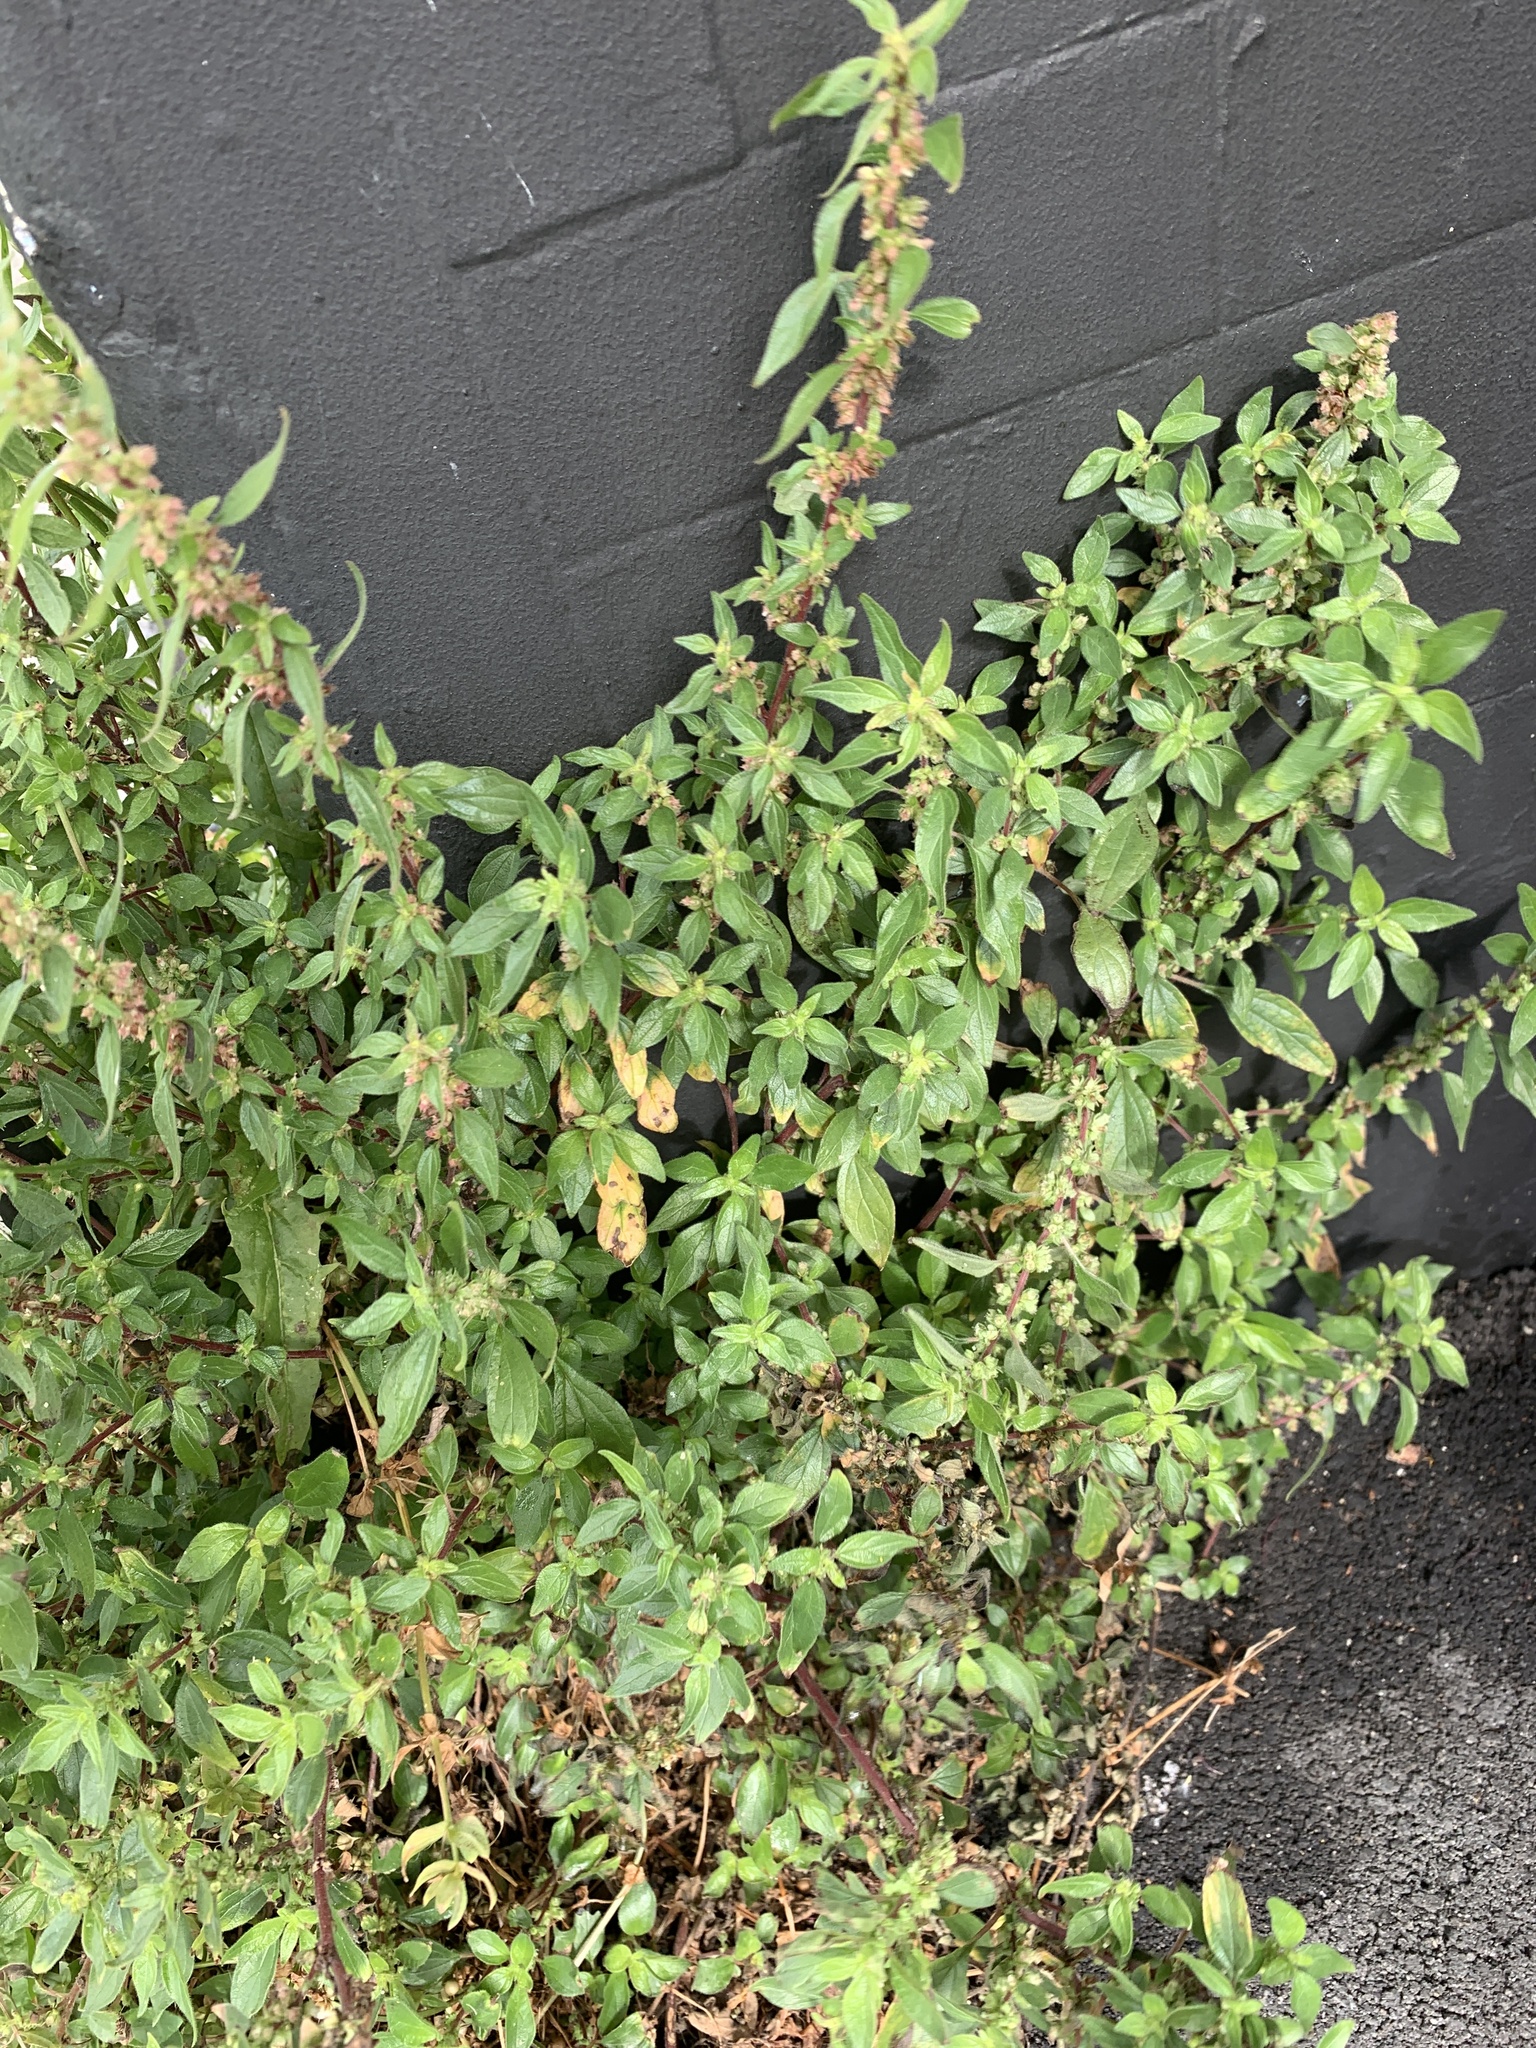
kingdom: Plantae
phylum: Tracheophyta
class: Magnoliopsida
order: Rosales
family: Urticaceae
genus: Parietaria
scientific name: Parietaria judaica
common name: Pellitory-of-the-wall
